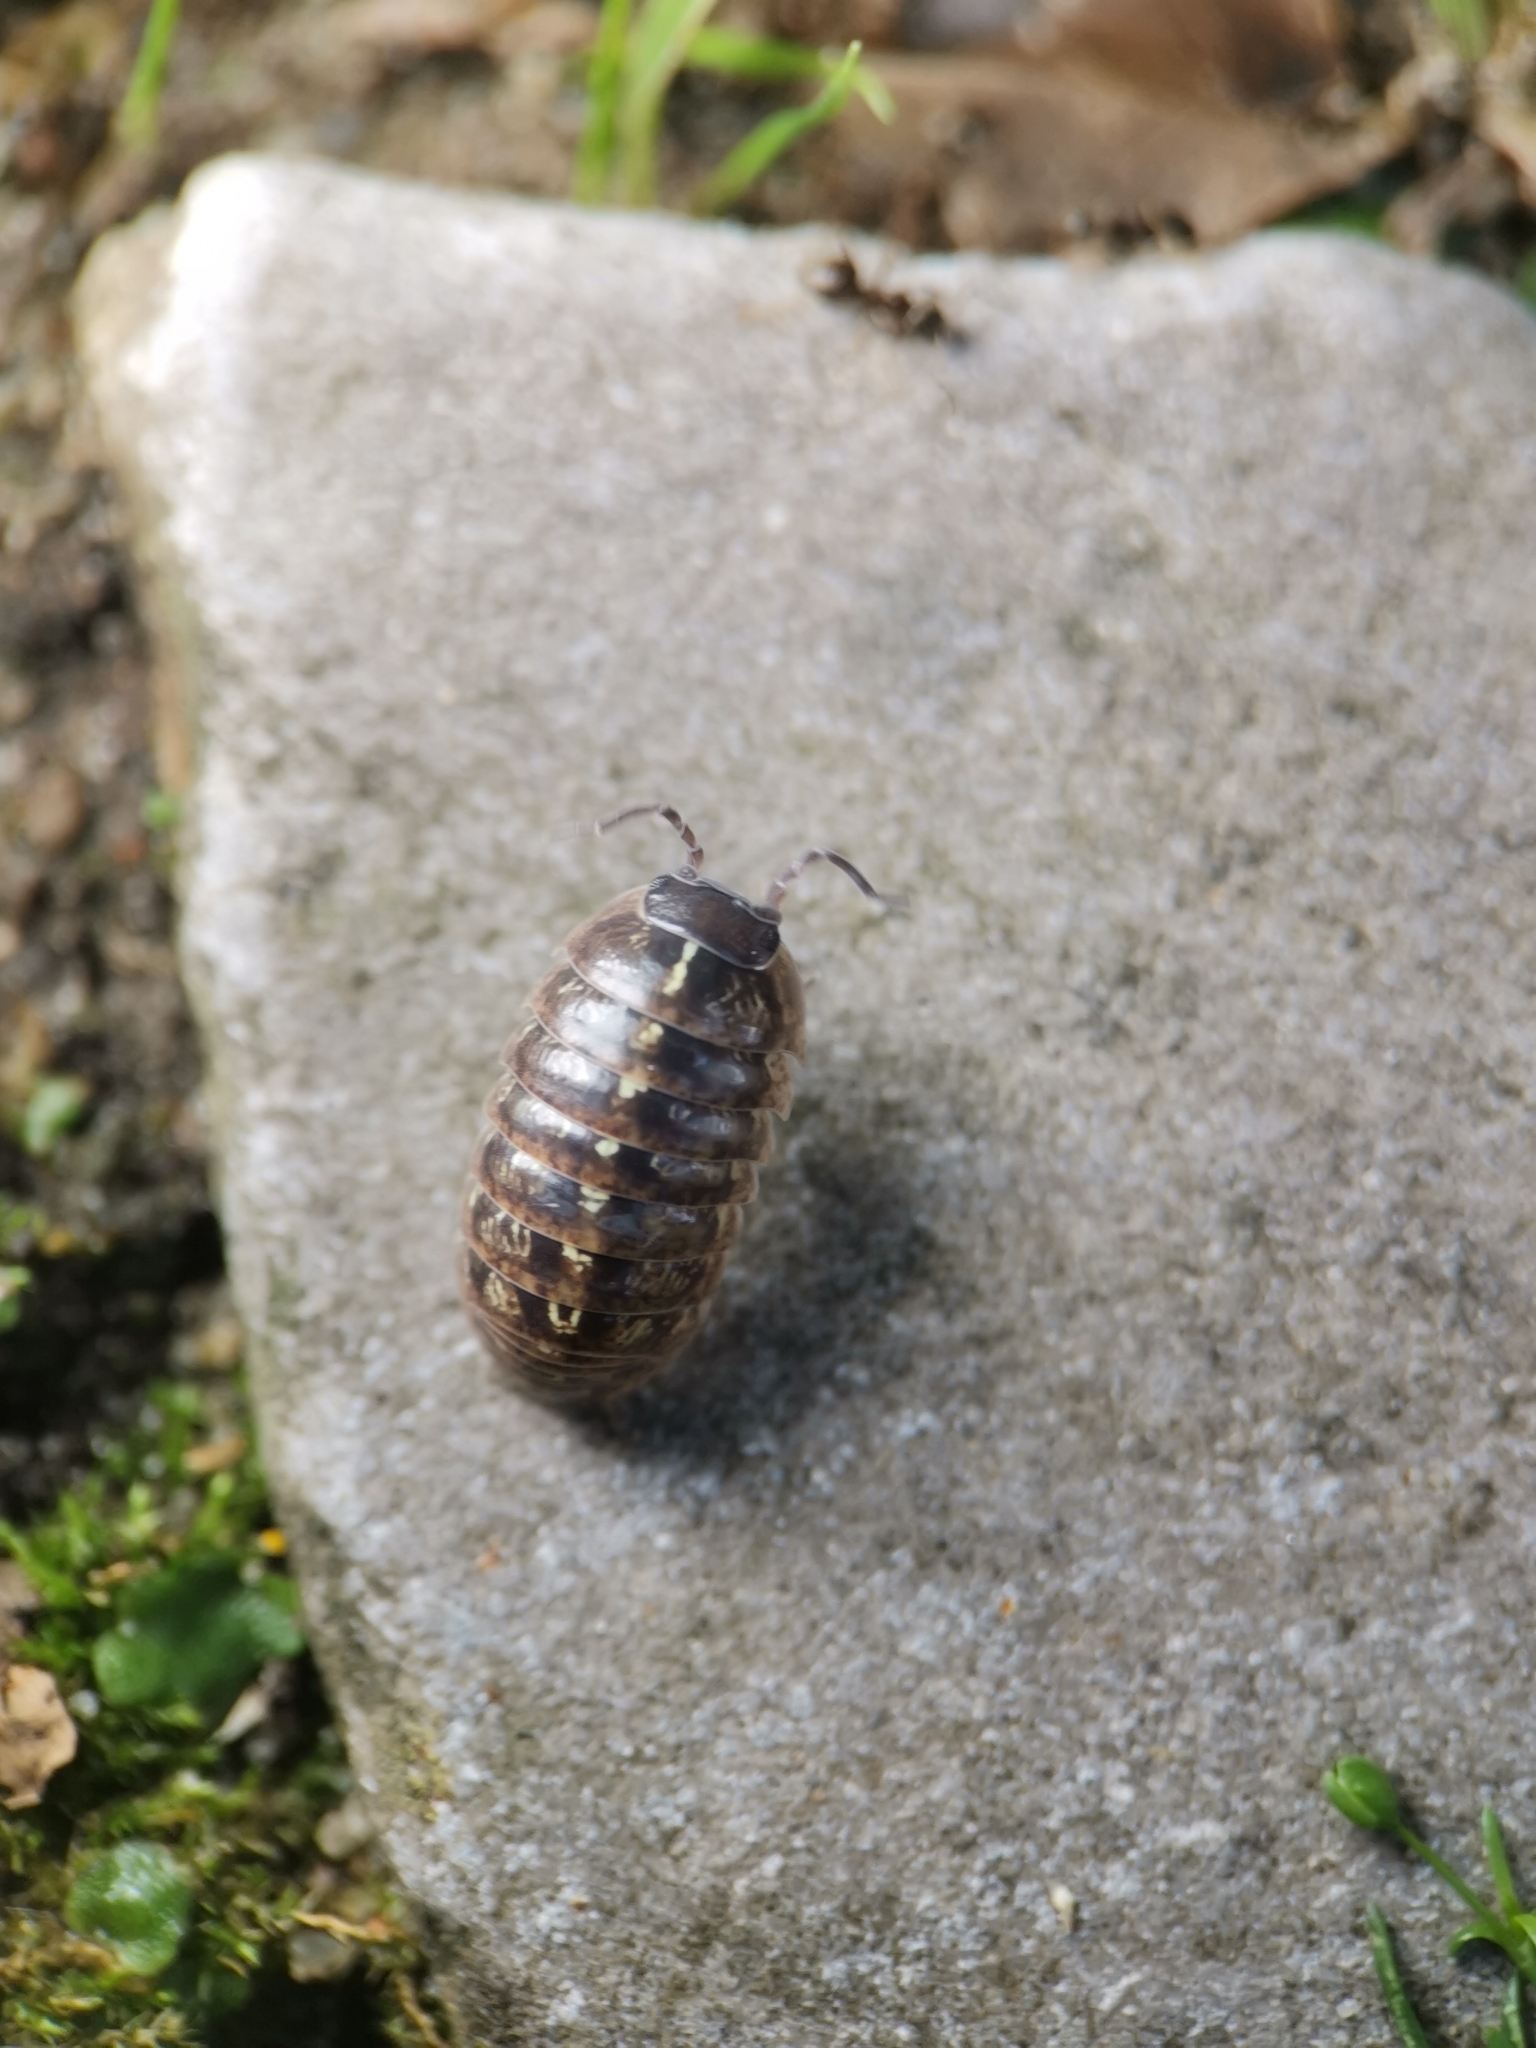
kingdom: Animalia
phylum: Arthropoda
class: Malacostraca
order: Isopoda
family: Armadillidiidae
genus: Armadillidium
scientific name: Armadillidium vulgare
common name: Common pill woodlouse
